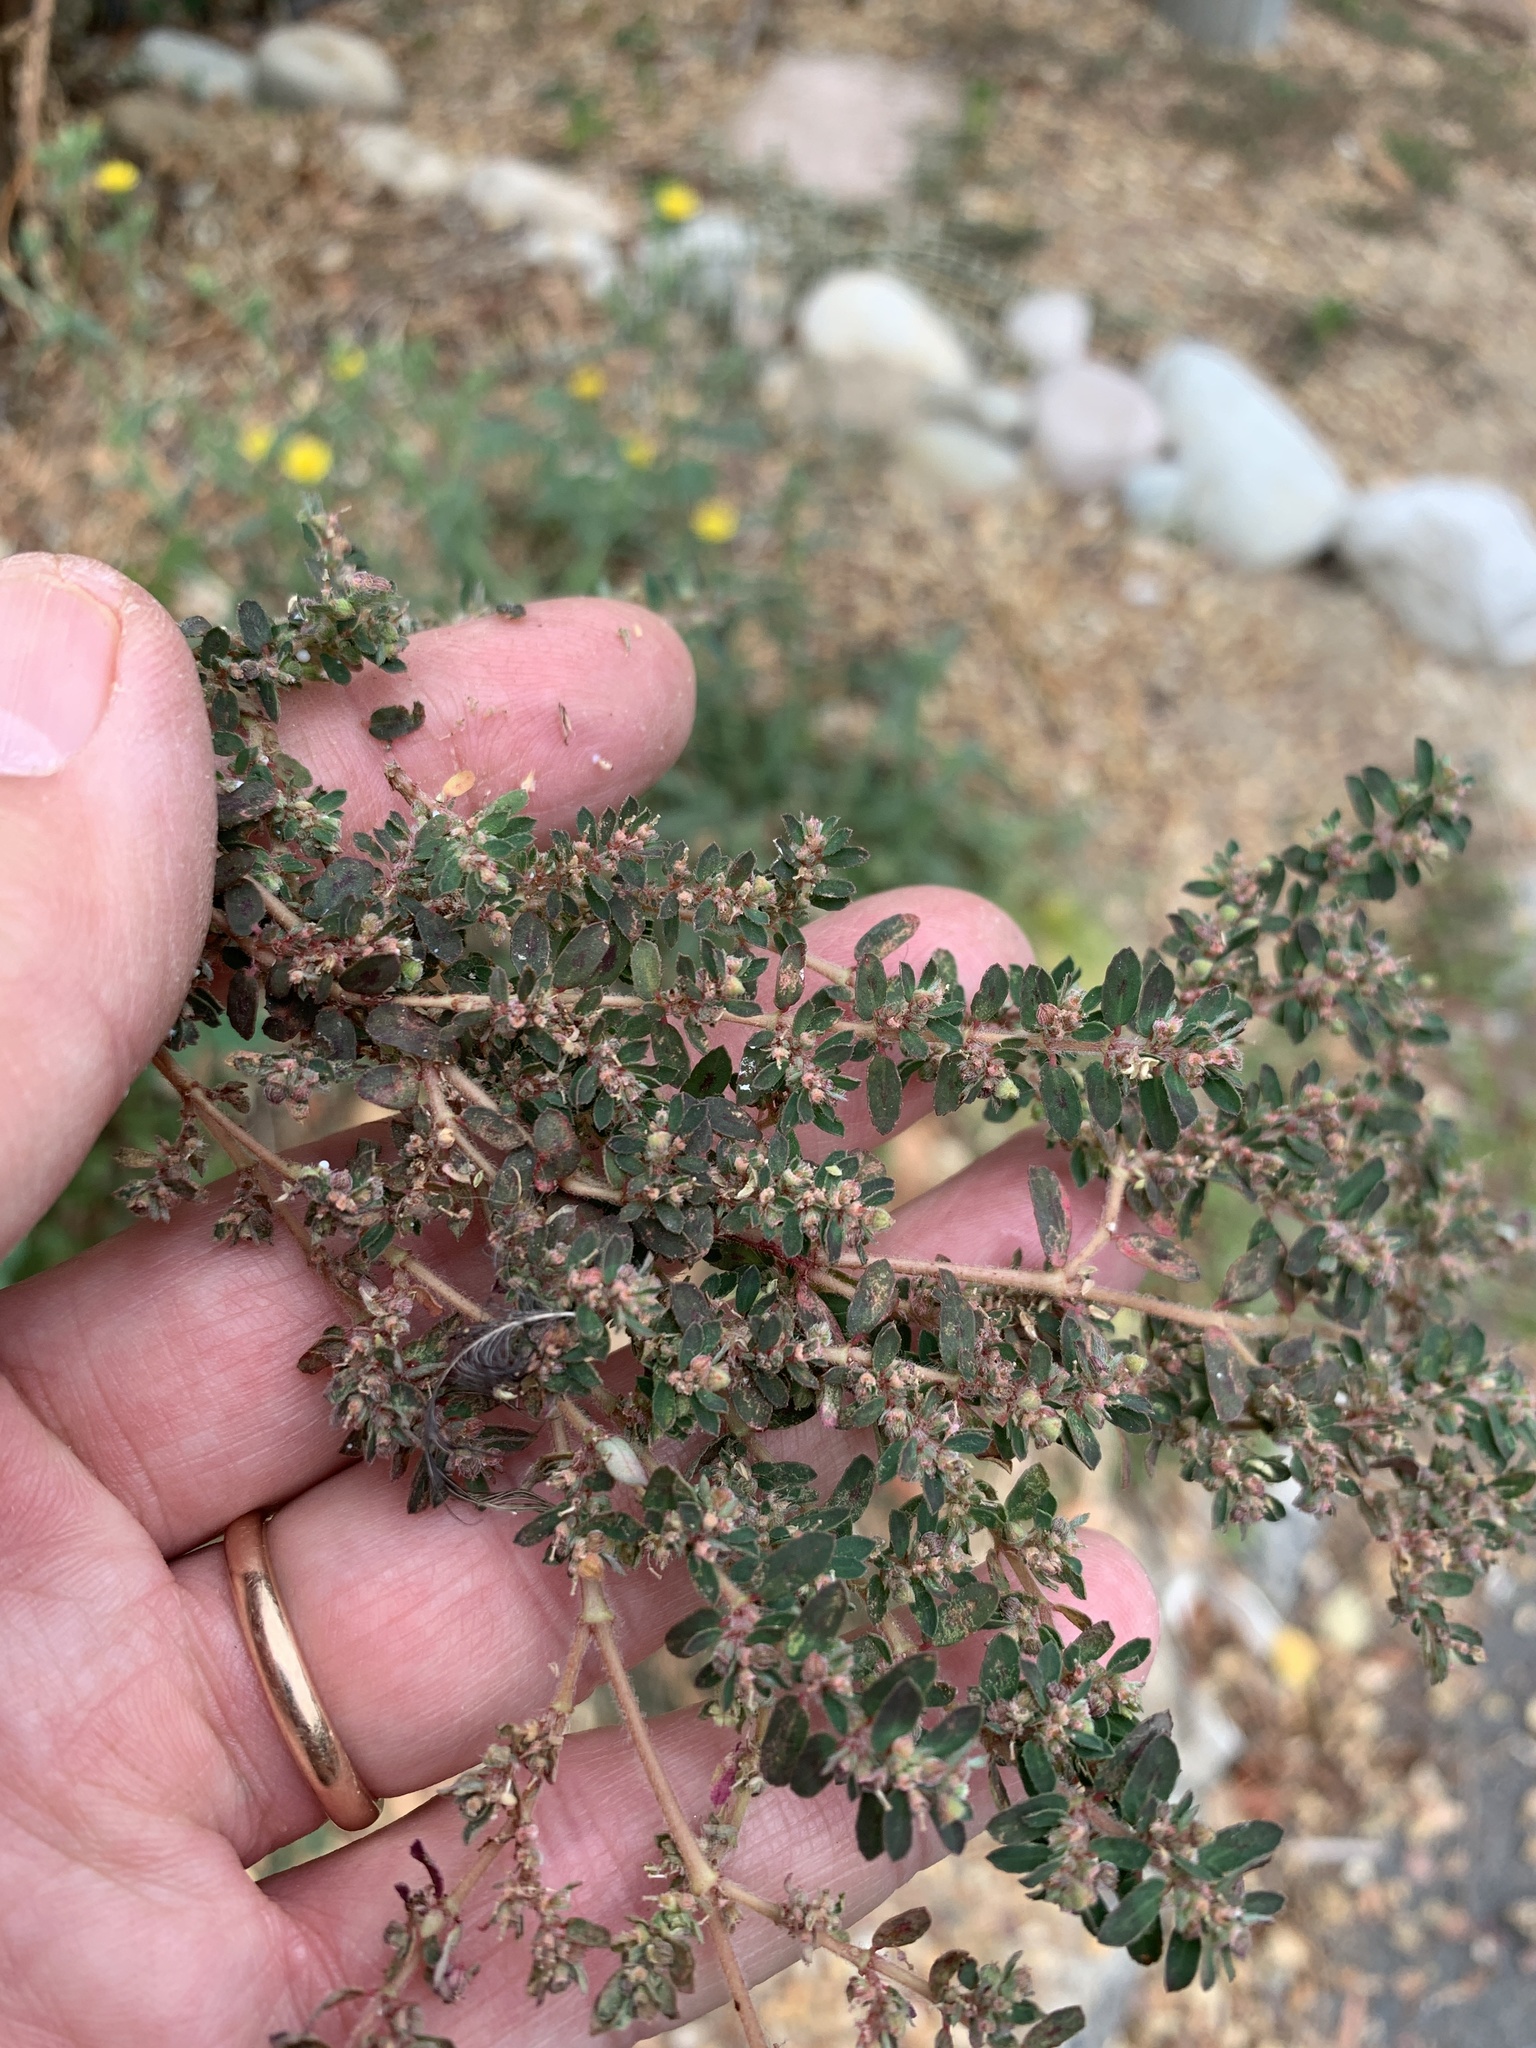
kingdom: Plantae
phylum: Tracheophyta
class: Magnoliopsida
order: Malpighiales
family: Euphorbiaceae
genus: Euphorbia
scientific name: Euphorbia maculata
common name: Spotted spurge
